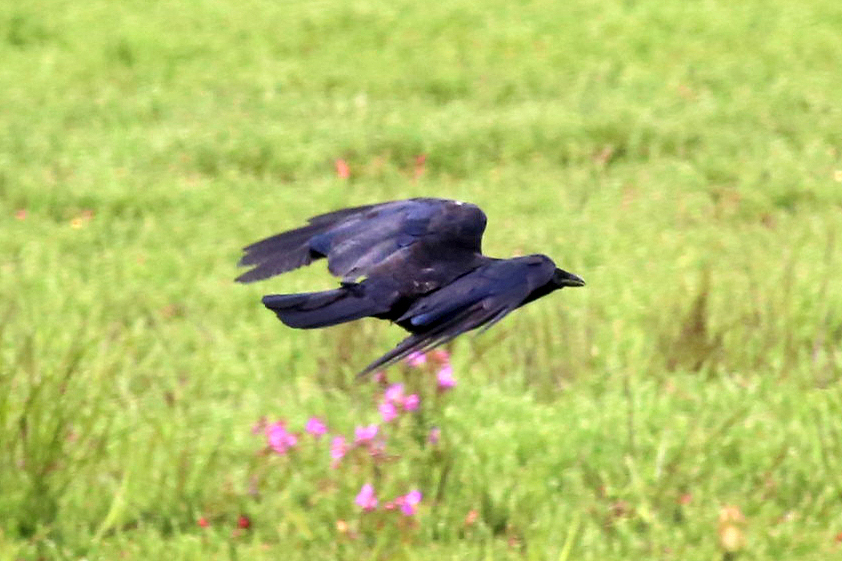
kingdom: Animalia
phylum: Chordata
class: Aves
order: Passeriformes
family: Corvidae
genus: Corvus
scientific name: Corvus ossifragus
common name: Fish crow
